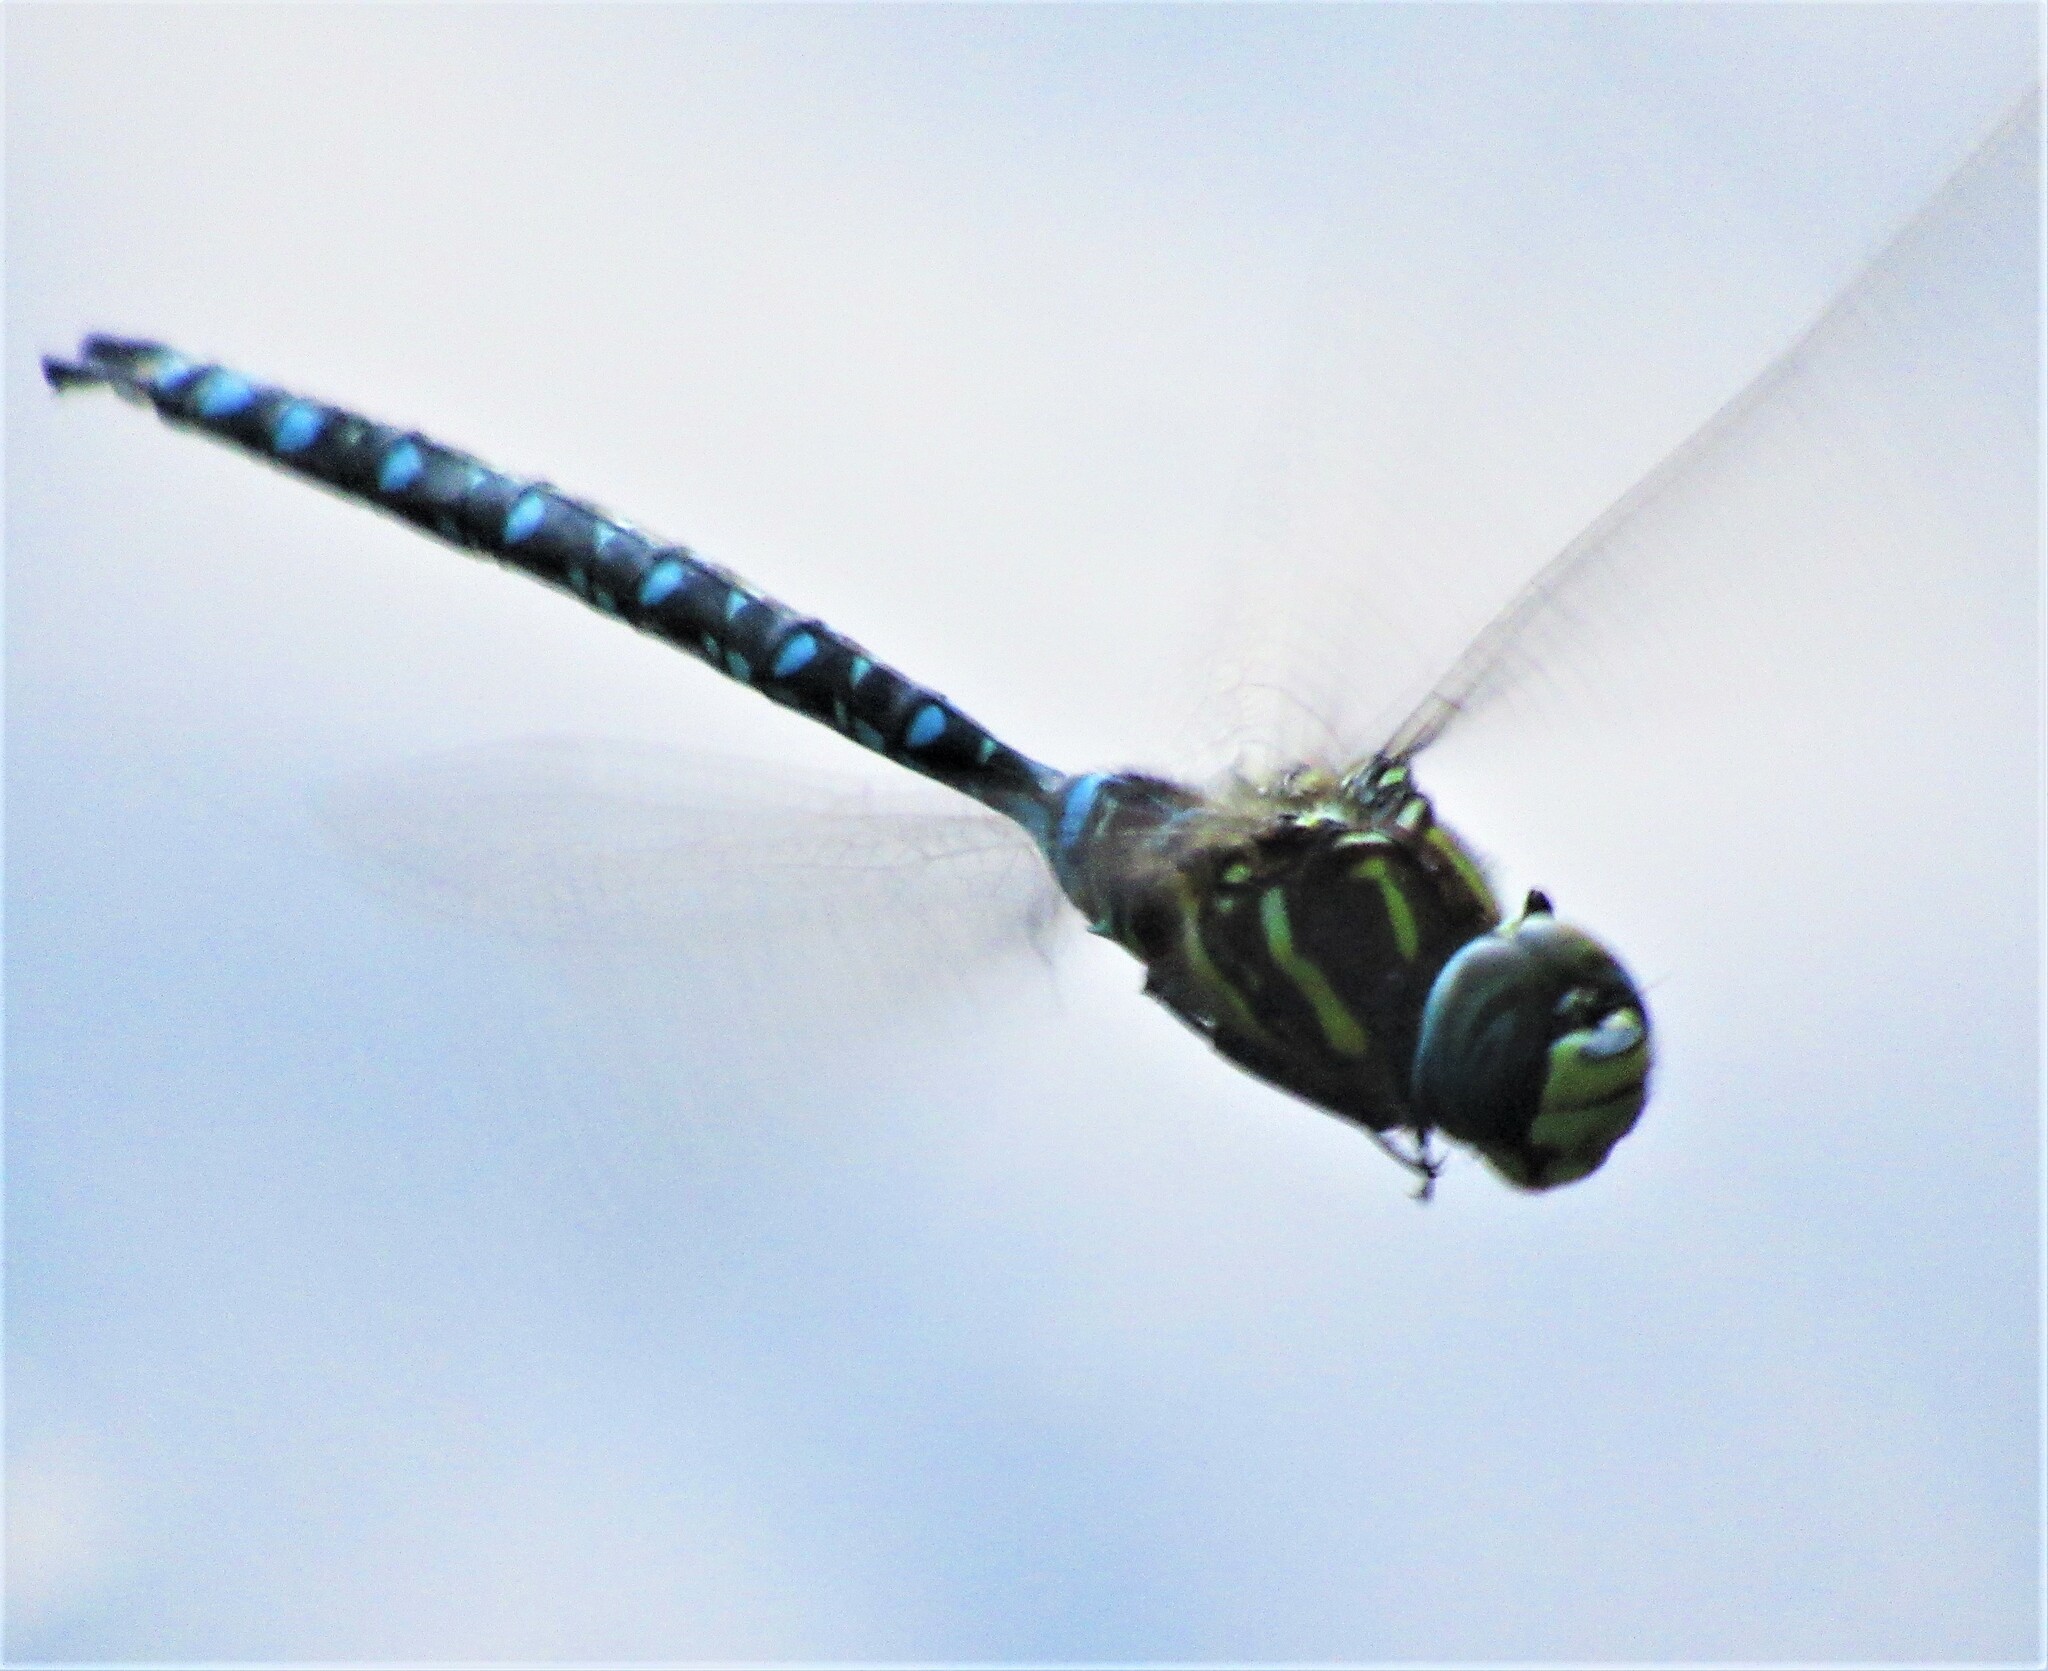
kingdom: Animalia
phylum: Arthropoda
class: Insecta
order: Odonata
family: Aeshnidae
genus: Aeshna
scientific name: Aeshna palmata
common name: Paddle-tailed darner
